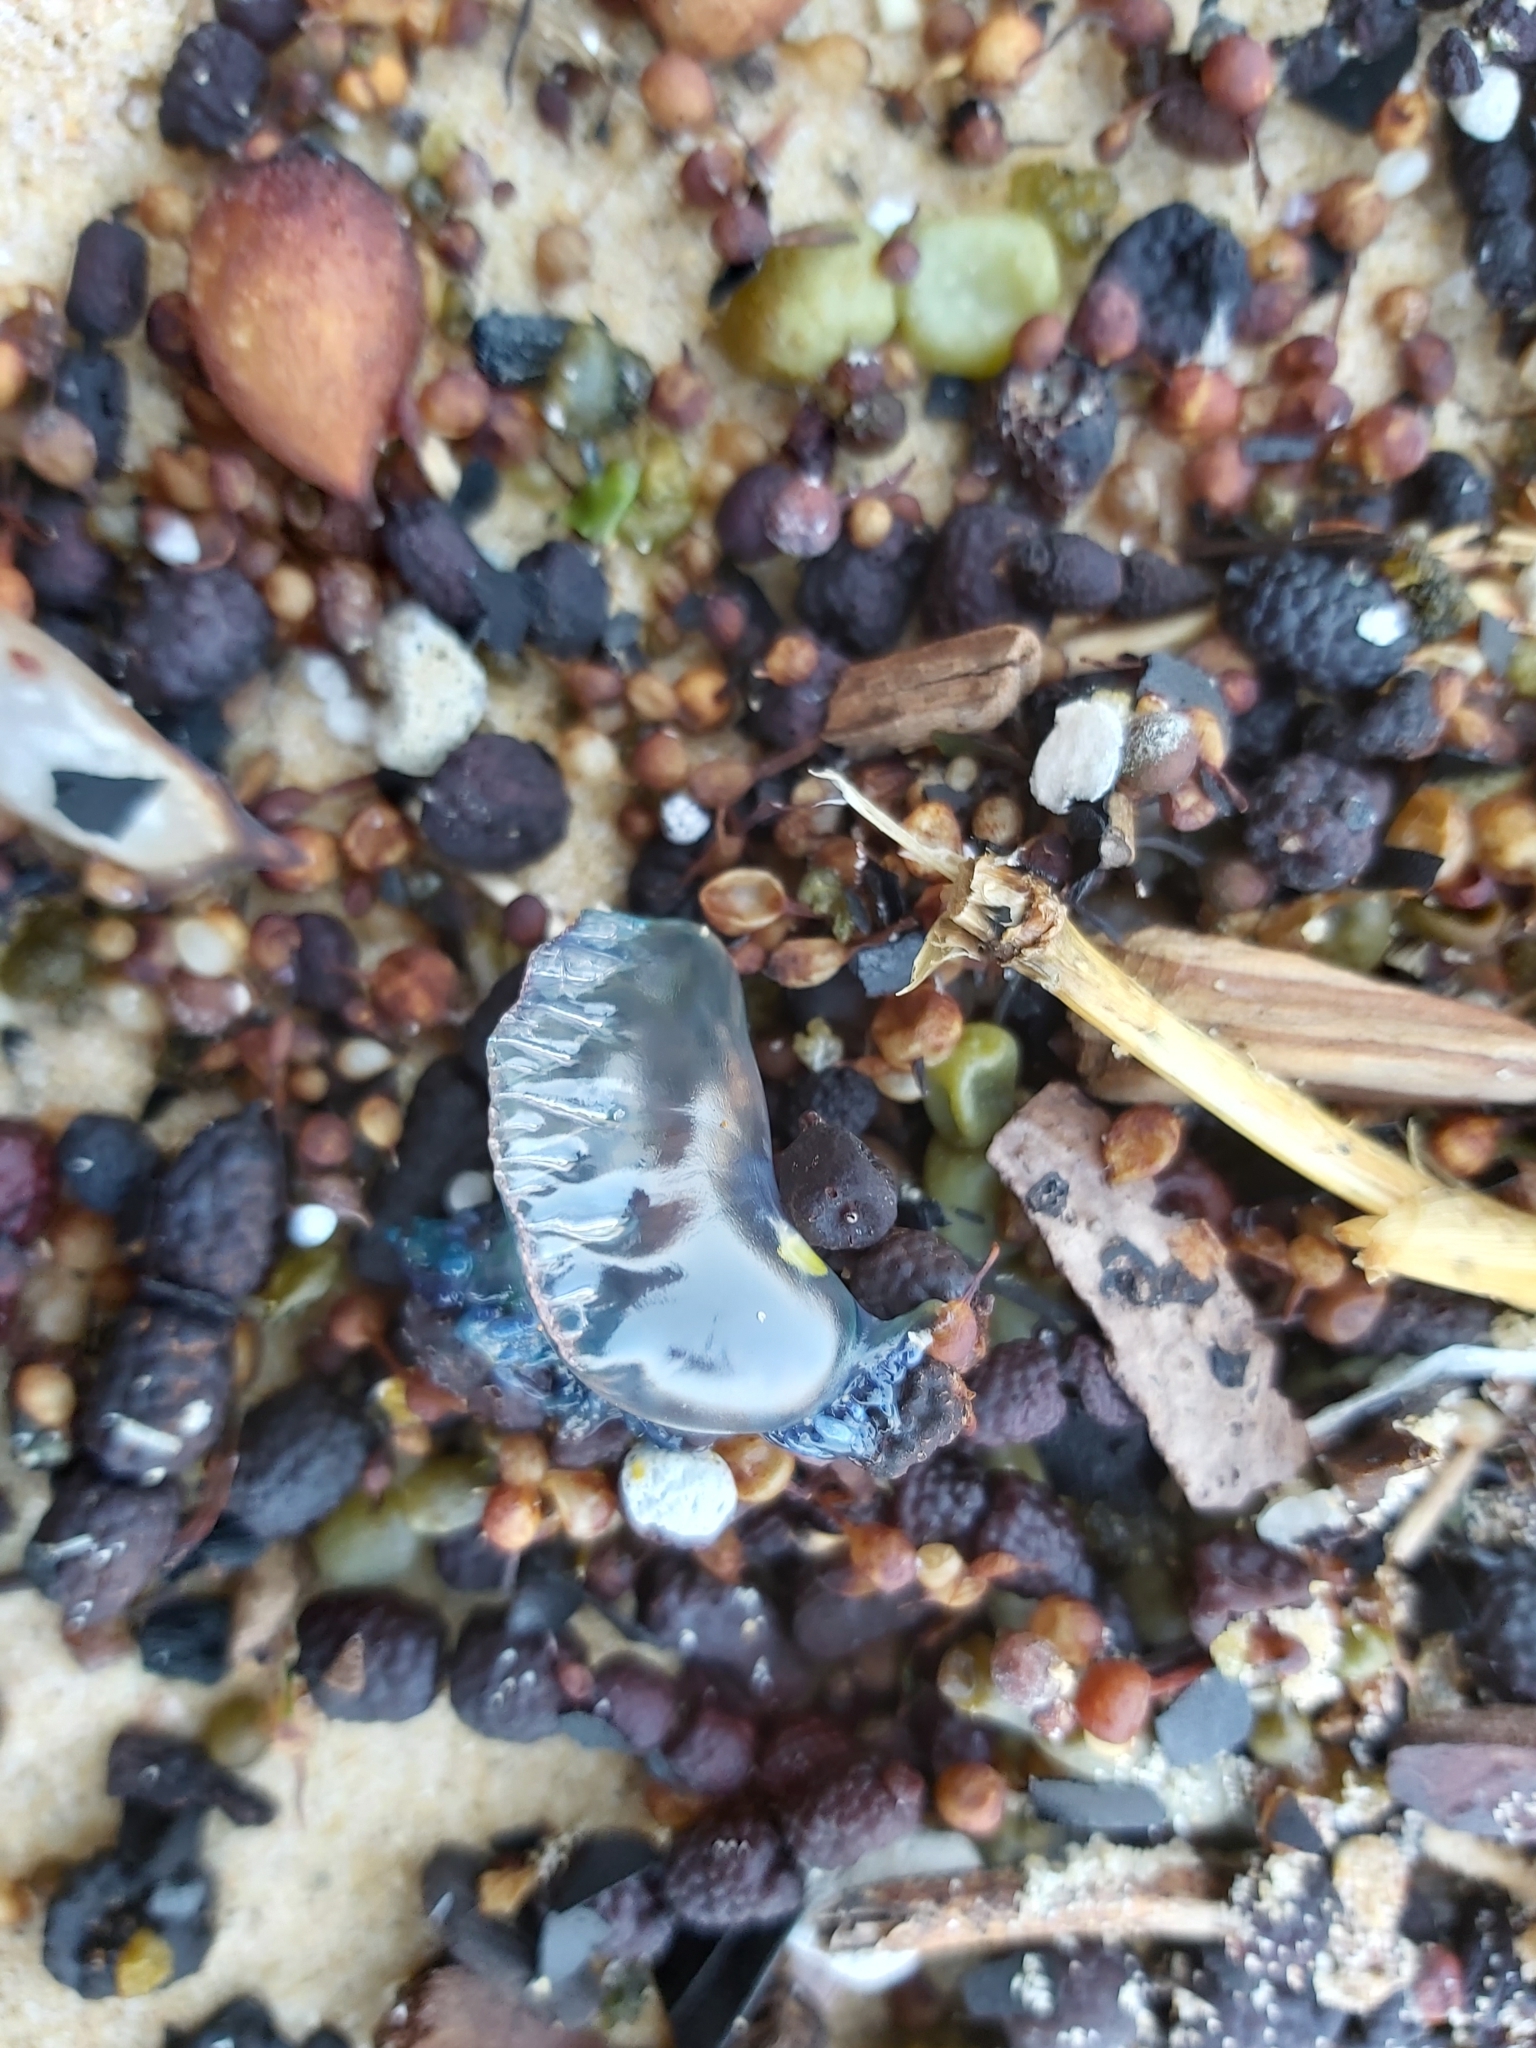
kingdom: Animalia
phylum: Cnidaria
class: Hydrozoa
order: Siphonophorae
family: Physaliidae
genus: Physalia
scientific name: Physalia physalis
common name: Portuguese man-of-war
